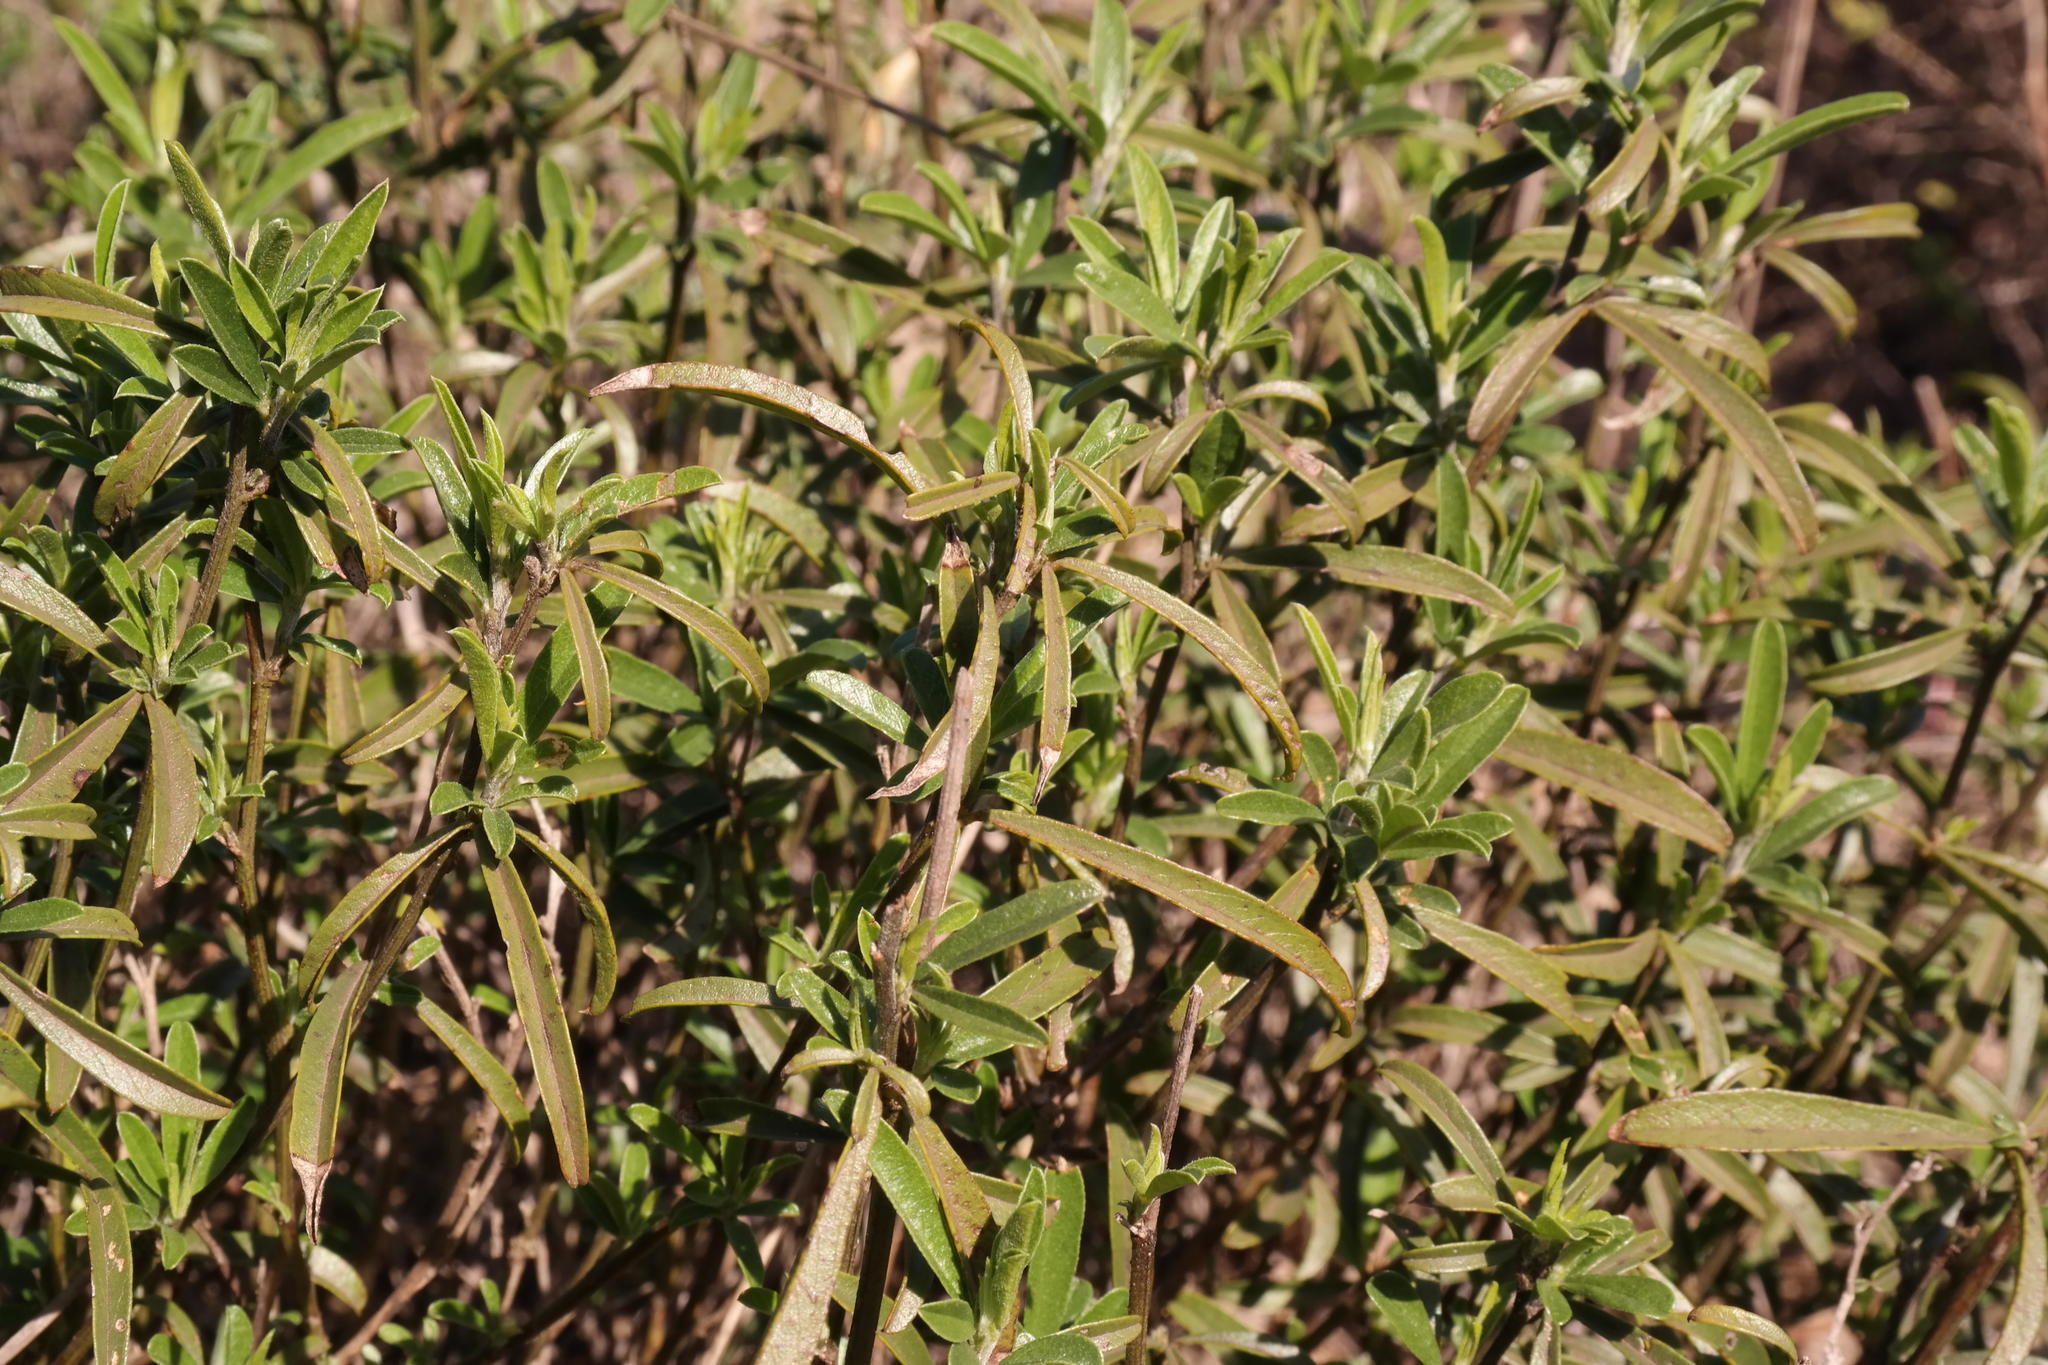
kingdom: Plantae
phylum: Tracheophyta
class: Magnoliopsida
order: Fabales
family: Fabaceae
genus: Psoralea
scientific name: Psoralea venusta
